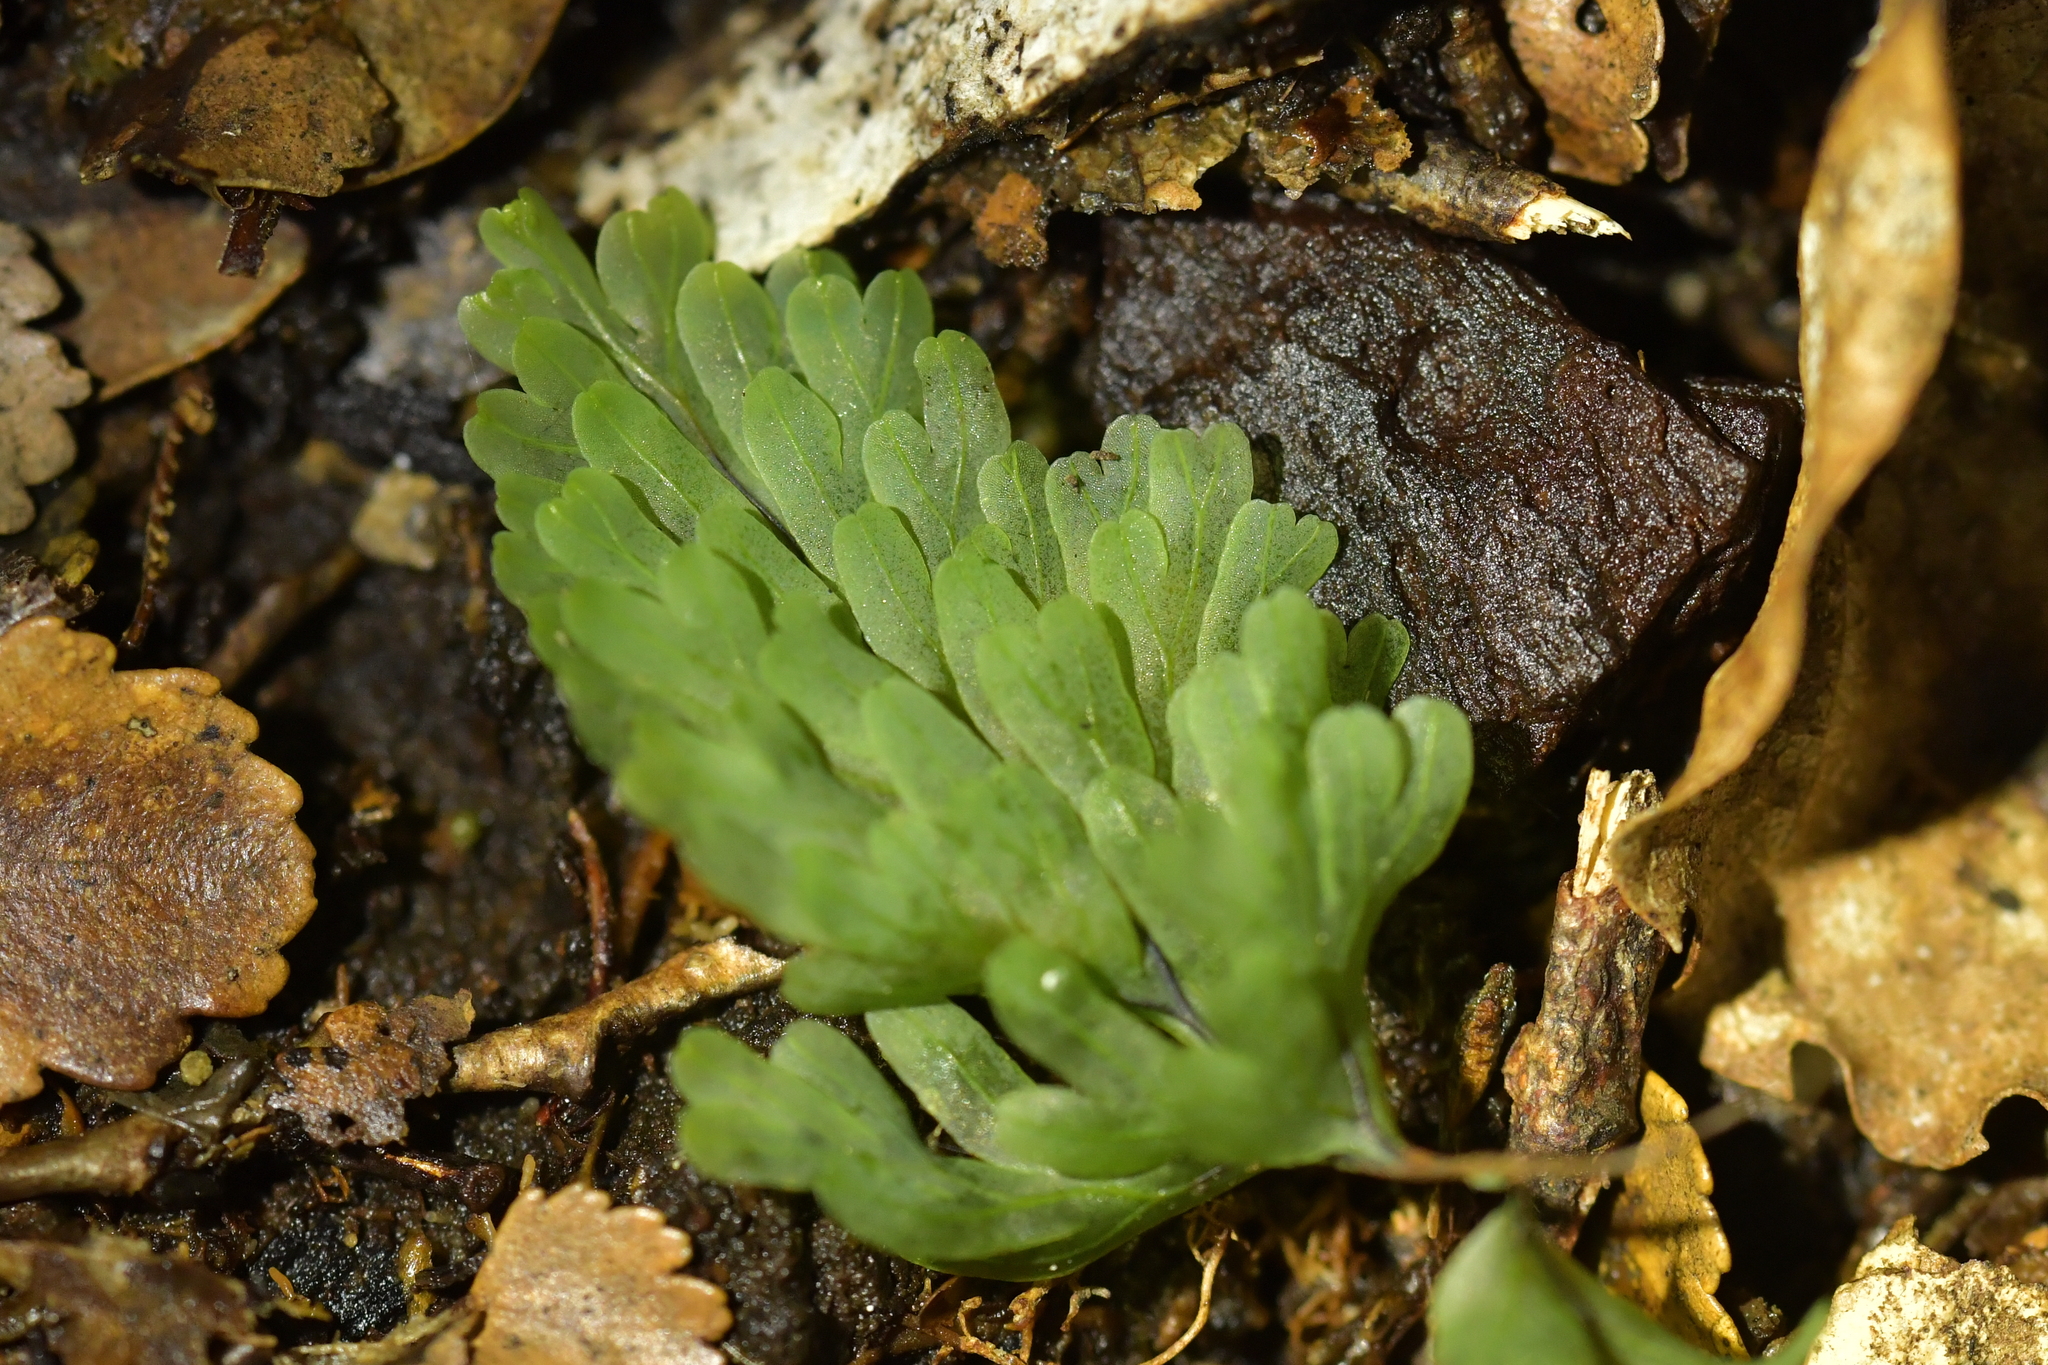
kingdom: Plantae
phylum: Tracheophyta
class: Polypodiopsida
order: Hymenophyllales
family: Hymenophyllaceae
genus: Hymenophyllum
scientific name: Hymenophyllum rarum
